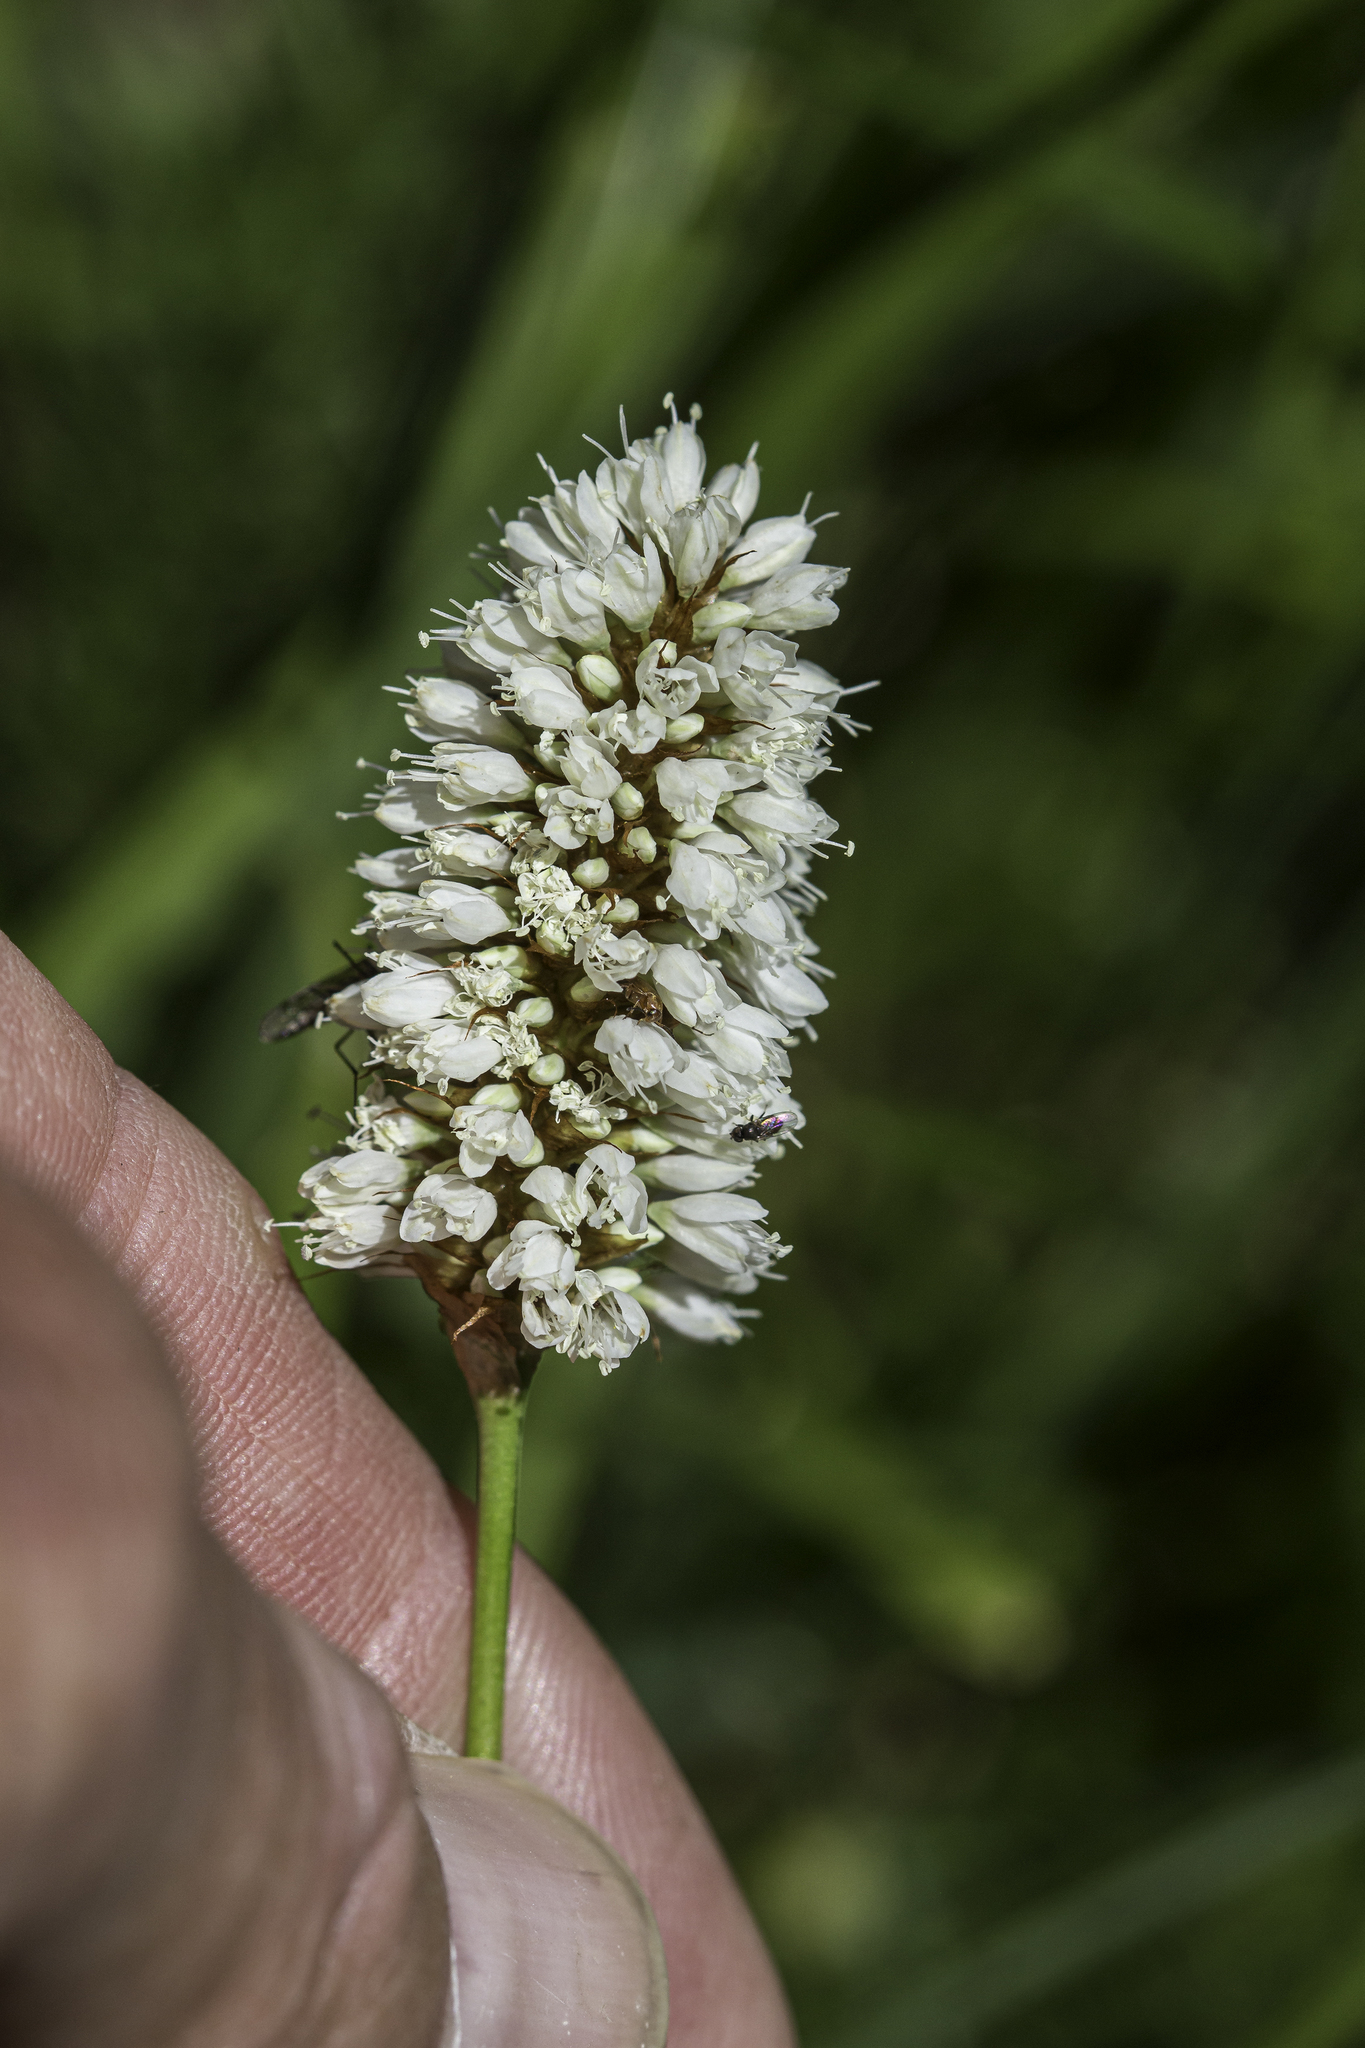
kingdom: Plantae
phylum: Tracheophyta
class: Magnoliopsida
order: Caryophyllales
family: Polygonaceae
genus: Bistorta
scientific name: Bistorta bistortoides
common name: American bistort
